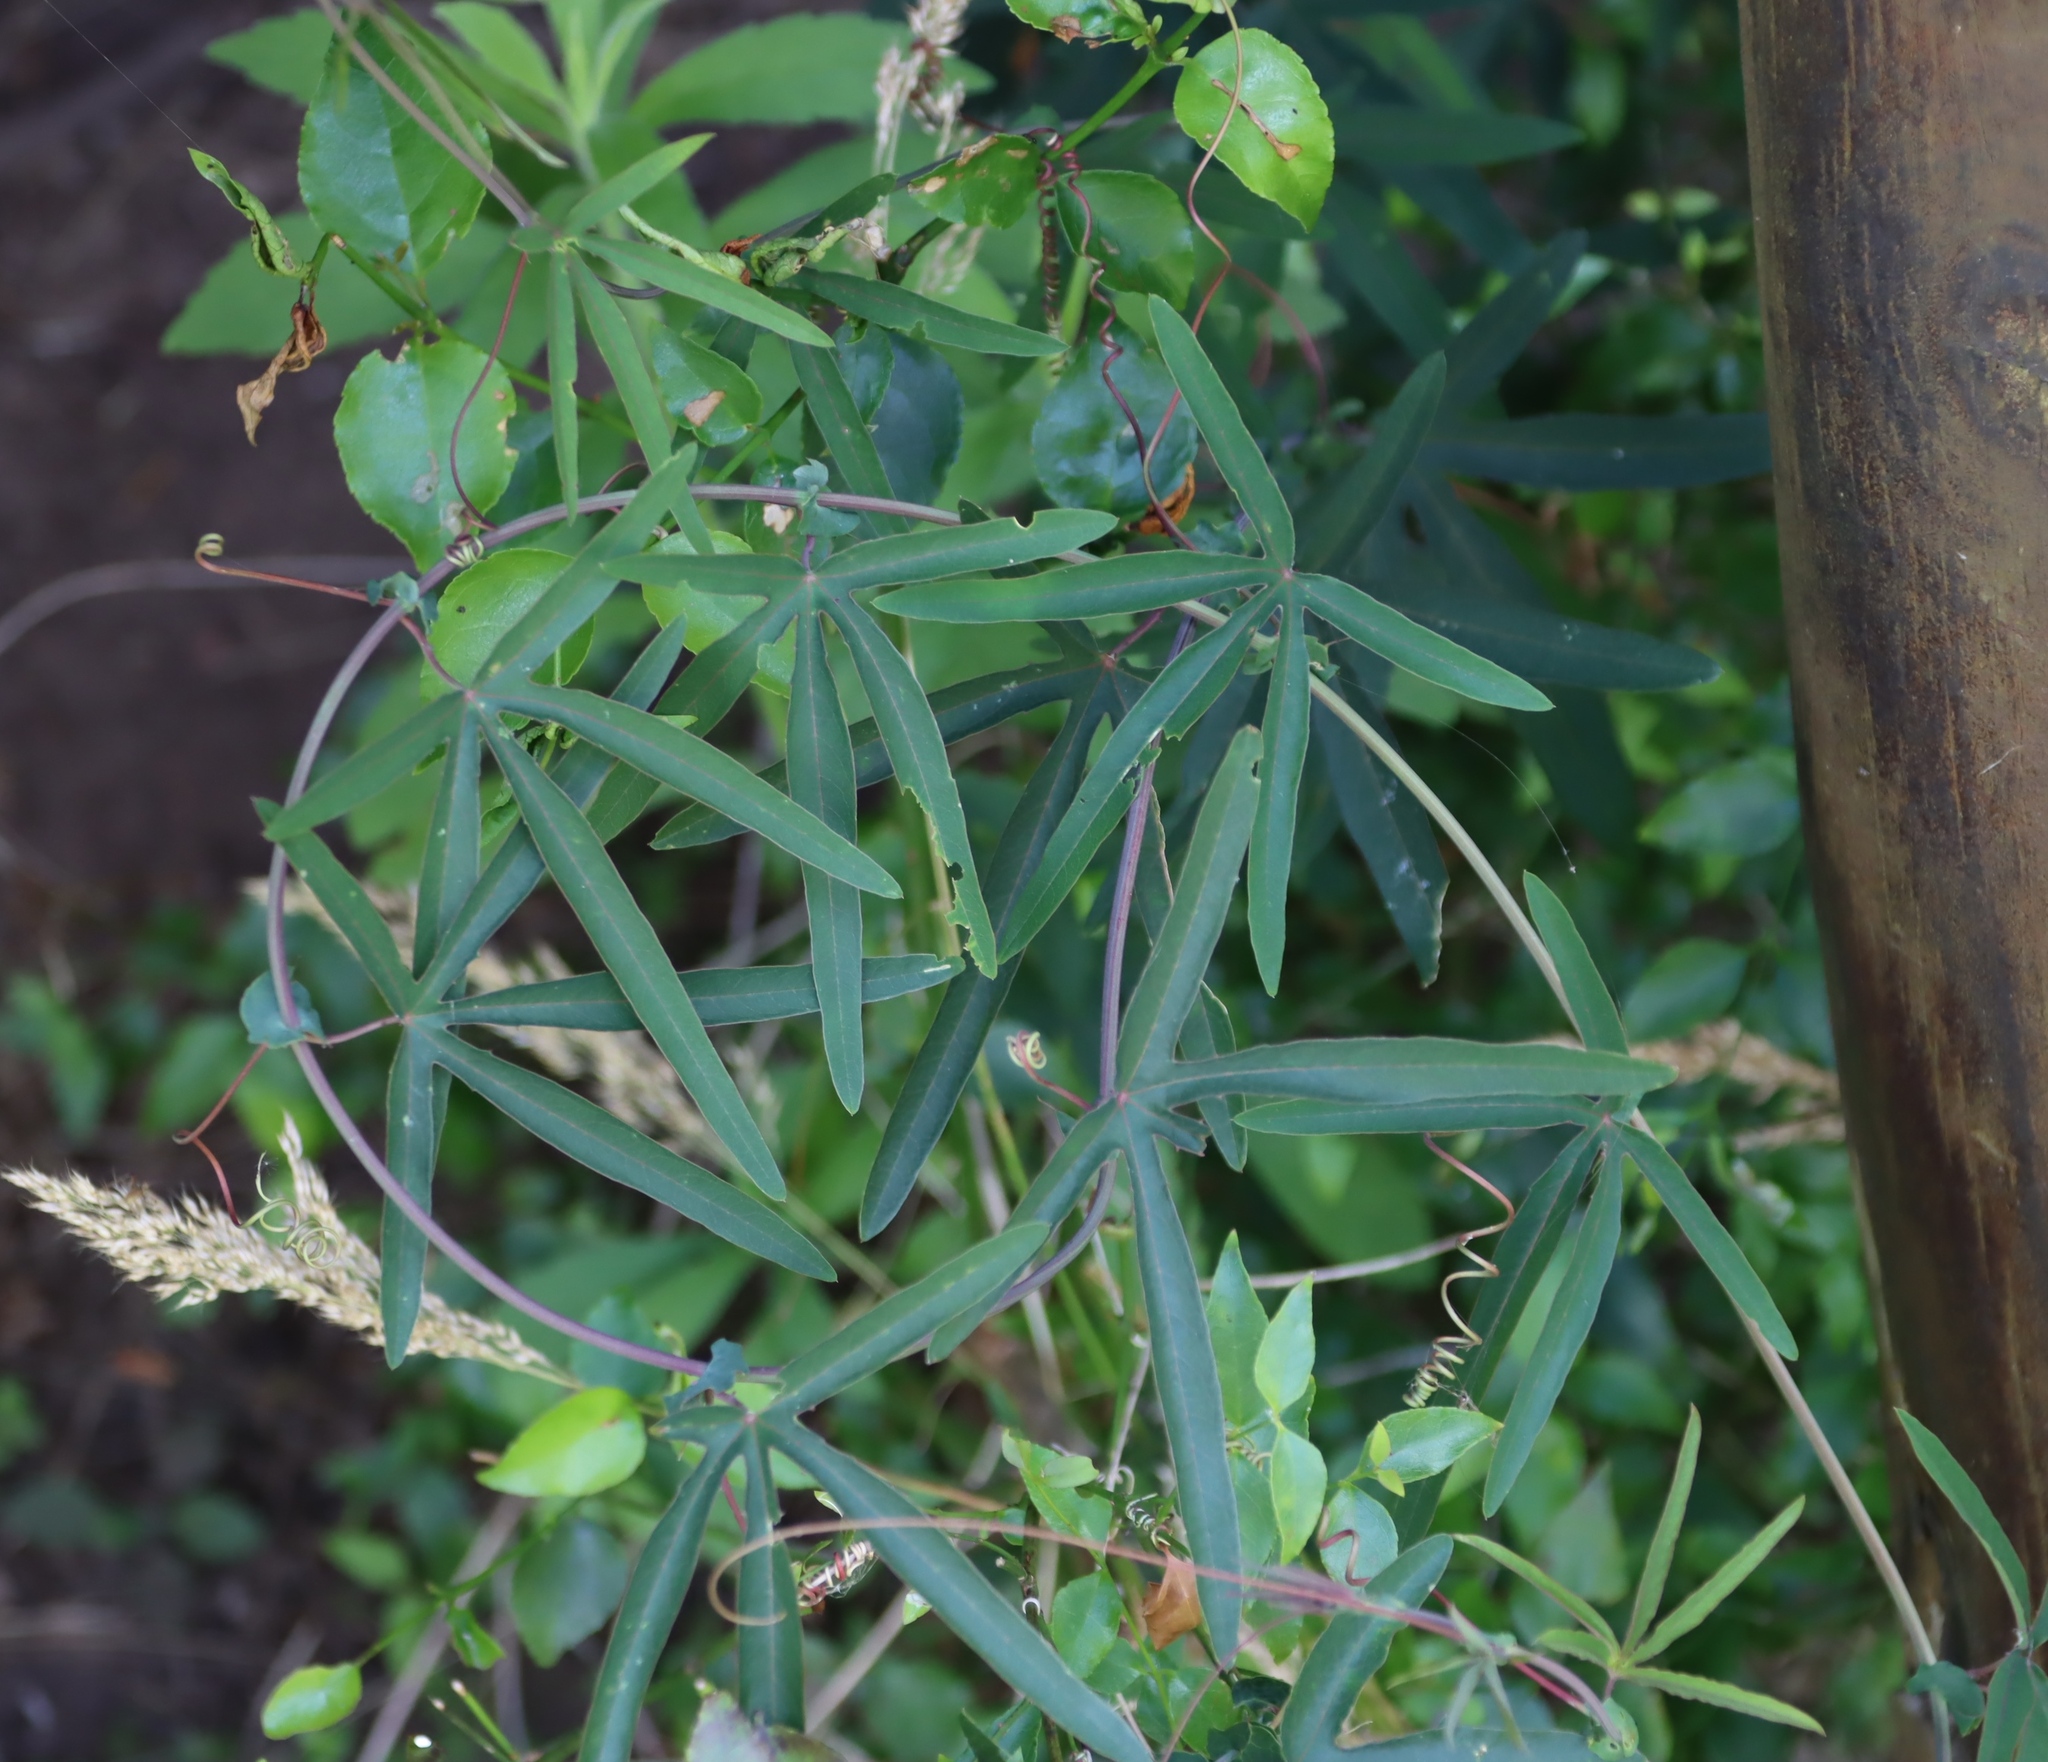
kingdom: Plantae
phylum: Tracheophyta
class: Magnoliopsida
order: Malpighiales
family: Passifloraceae
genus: Passiflora
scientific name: Passiflora caerulea
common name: Blue passionflower
